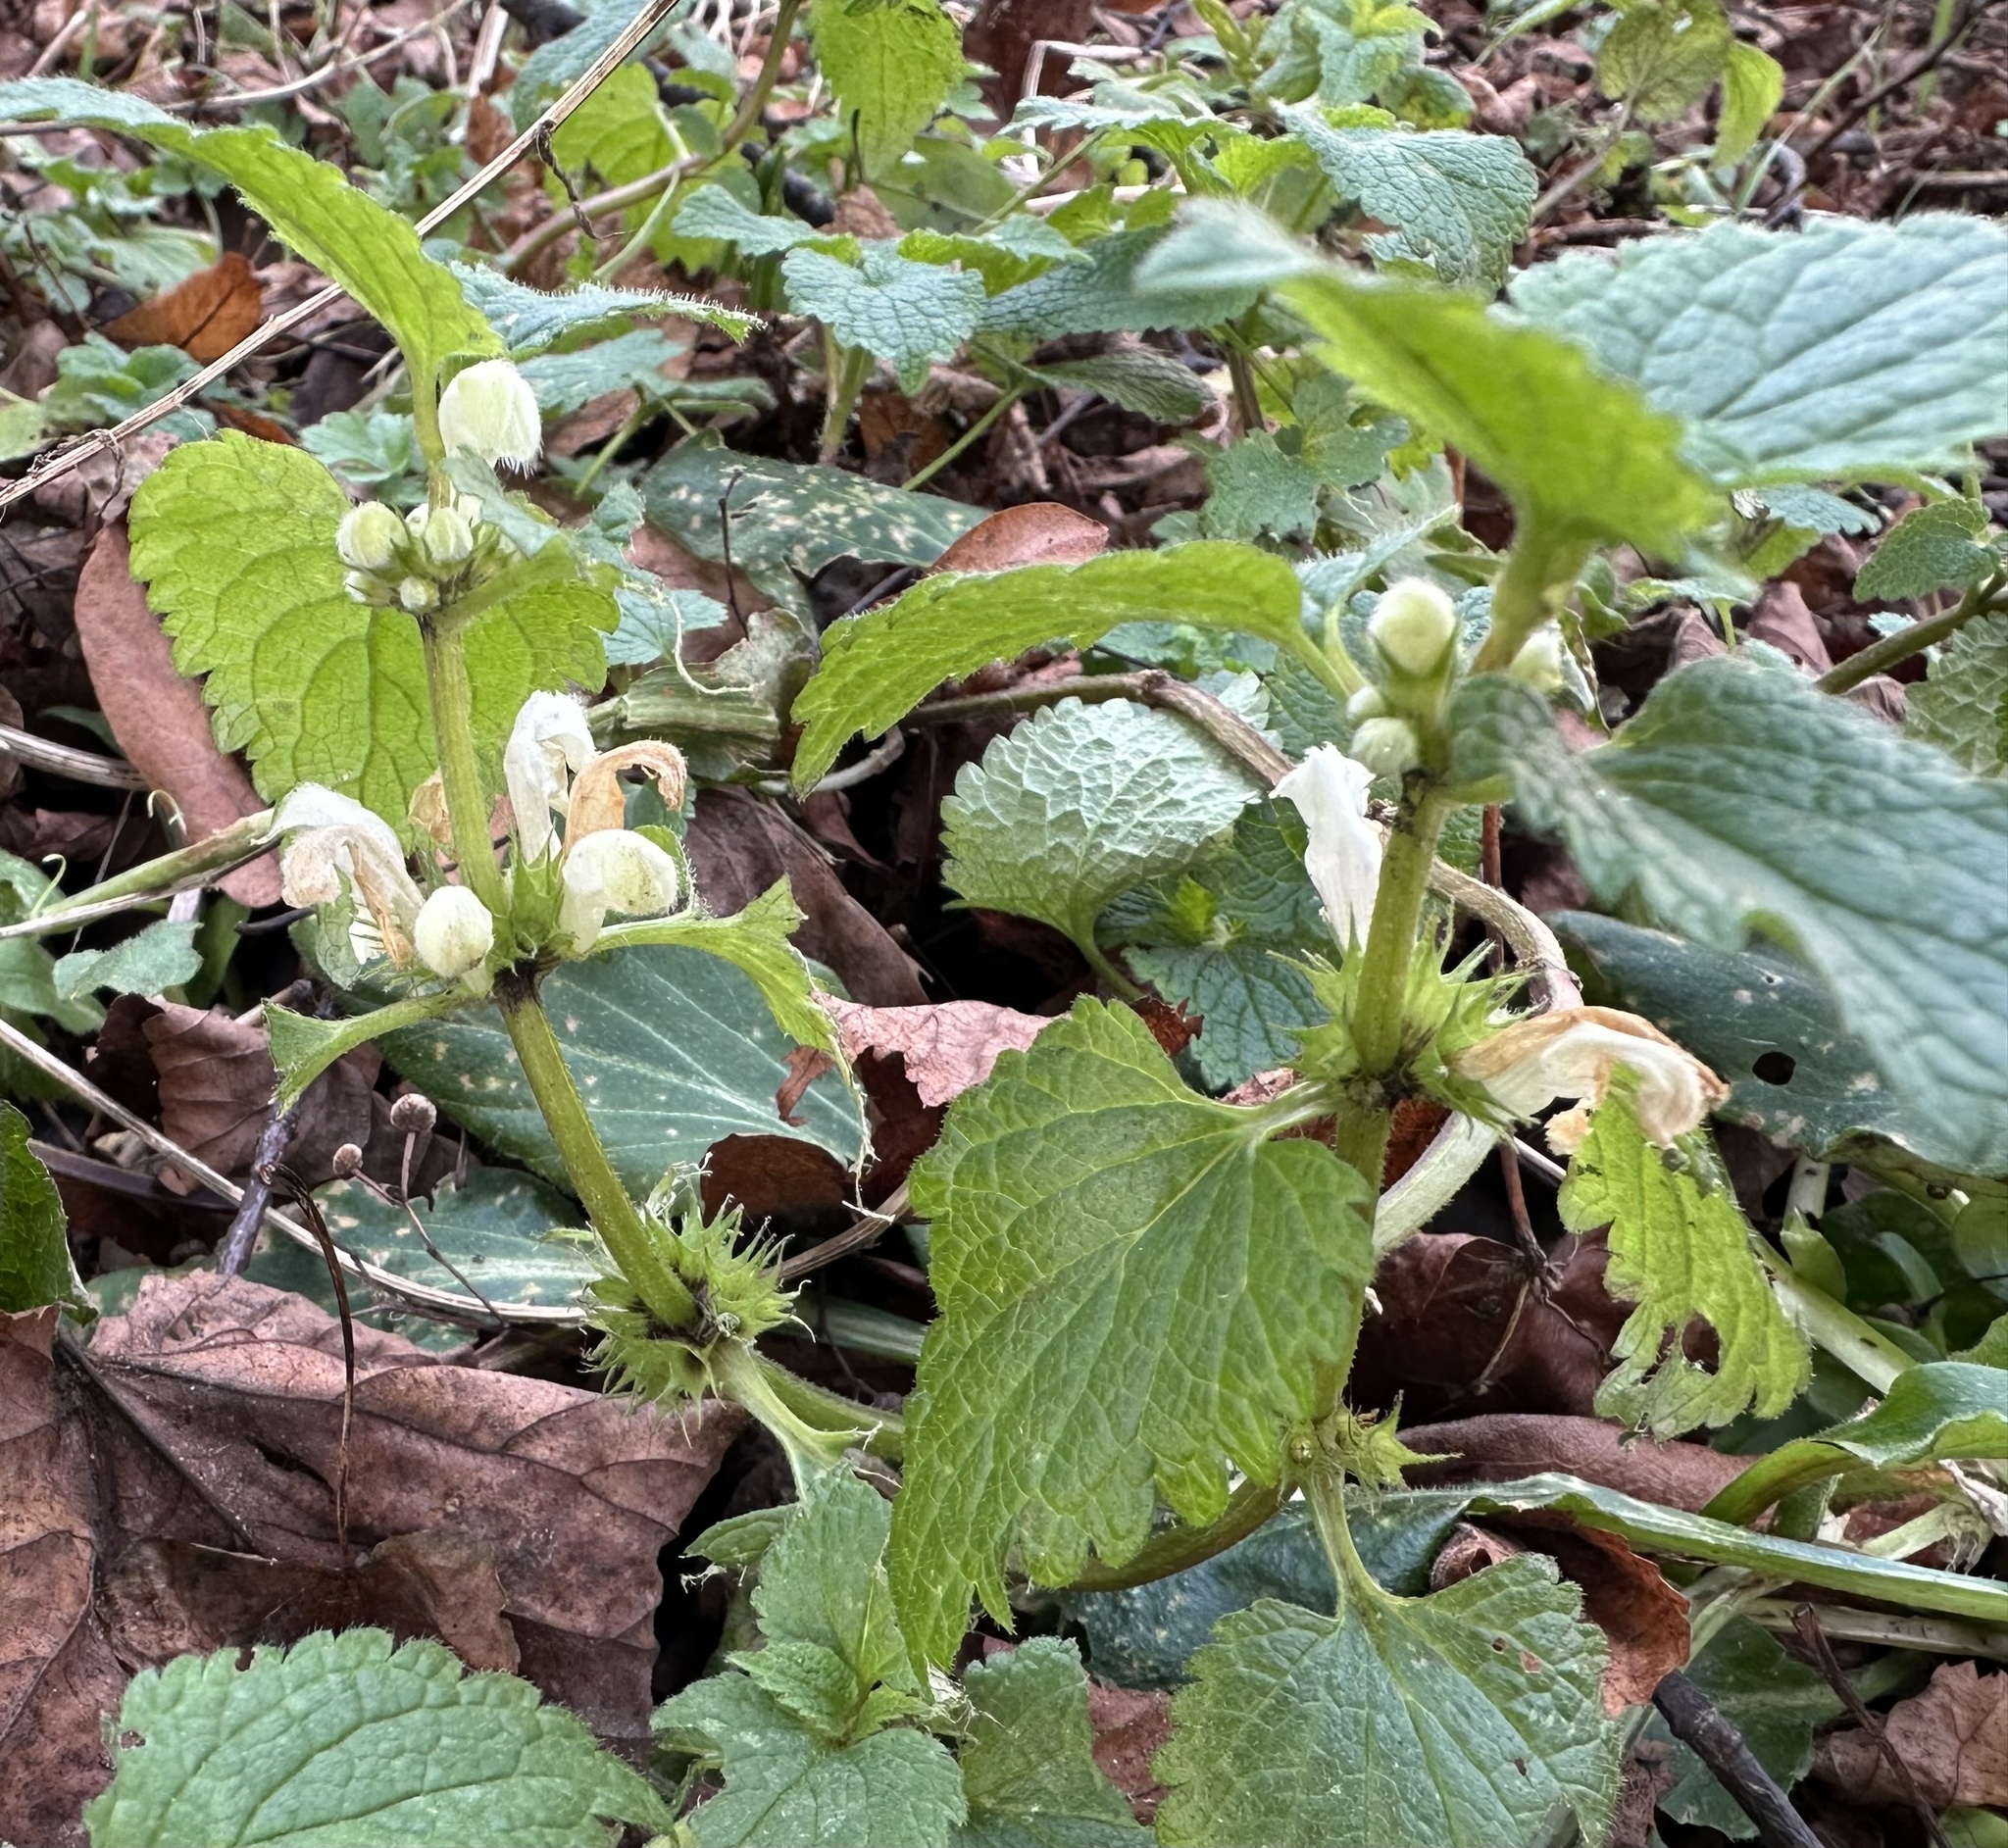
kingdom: Plantae
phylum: Tracheophyta
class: Magnoliopsida
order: Lamiales
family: Lamiaceae
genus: Lamium
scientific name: Lamium album
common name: White dead-nettle
